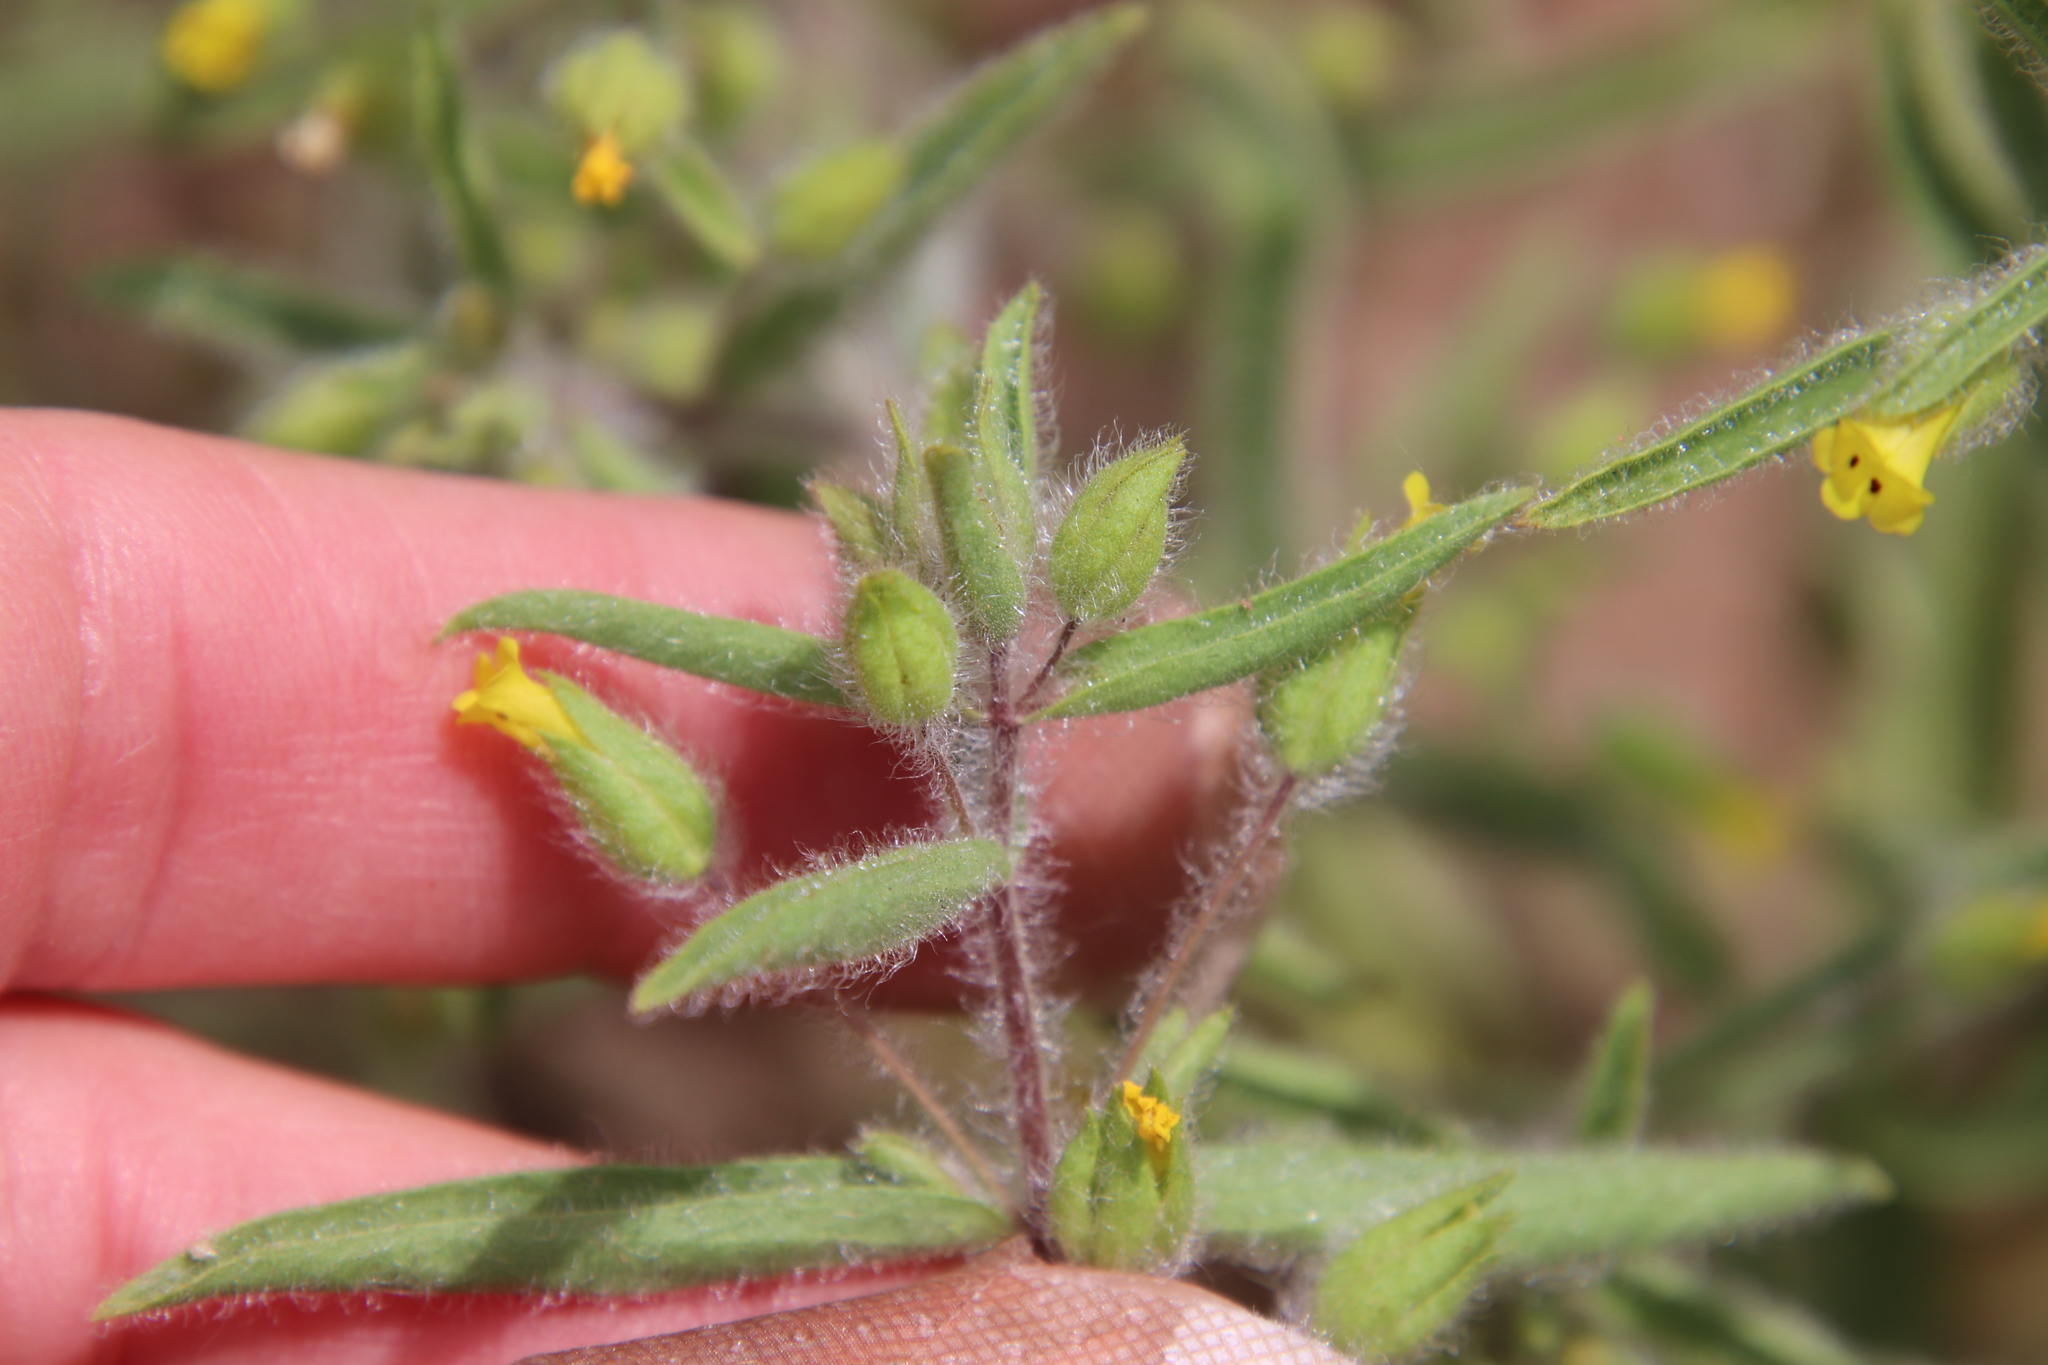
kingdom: Plantae
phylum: Tracheophyta
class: Magnoliopsida
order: Lamiales
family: Phrymaceae
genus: Mimetanthe
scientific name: Mimetanthe pilosa
